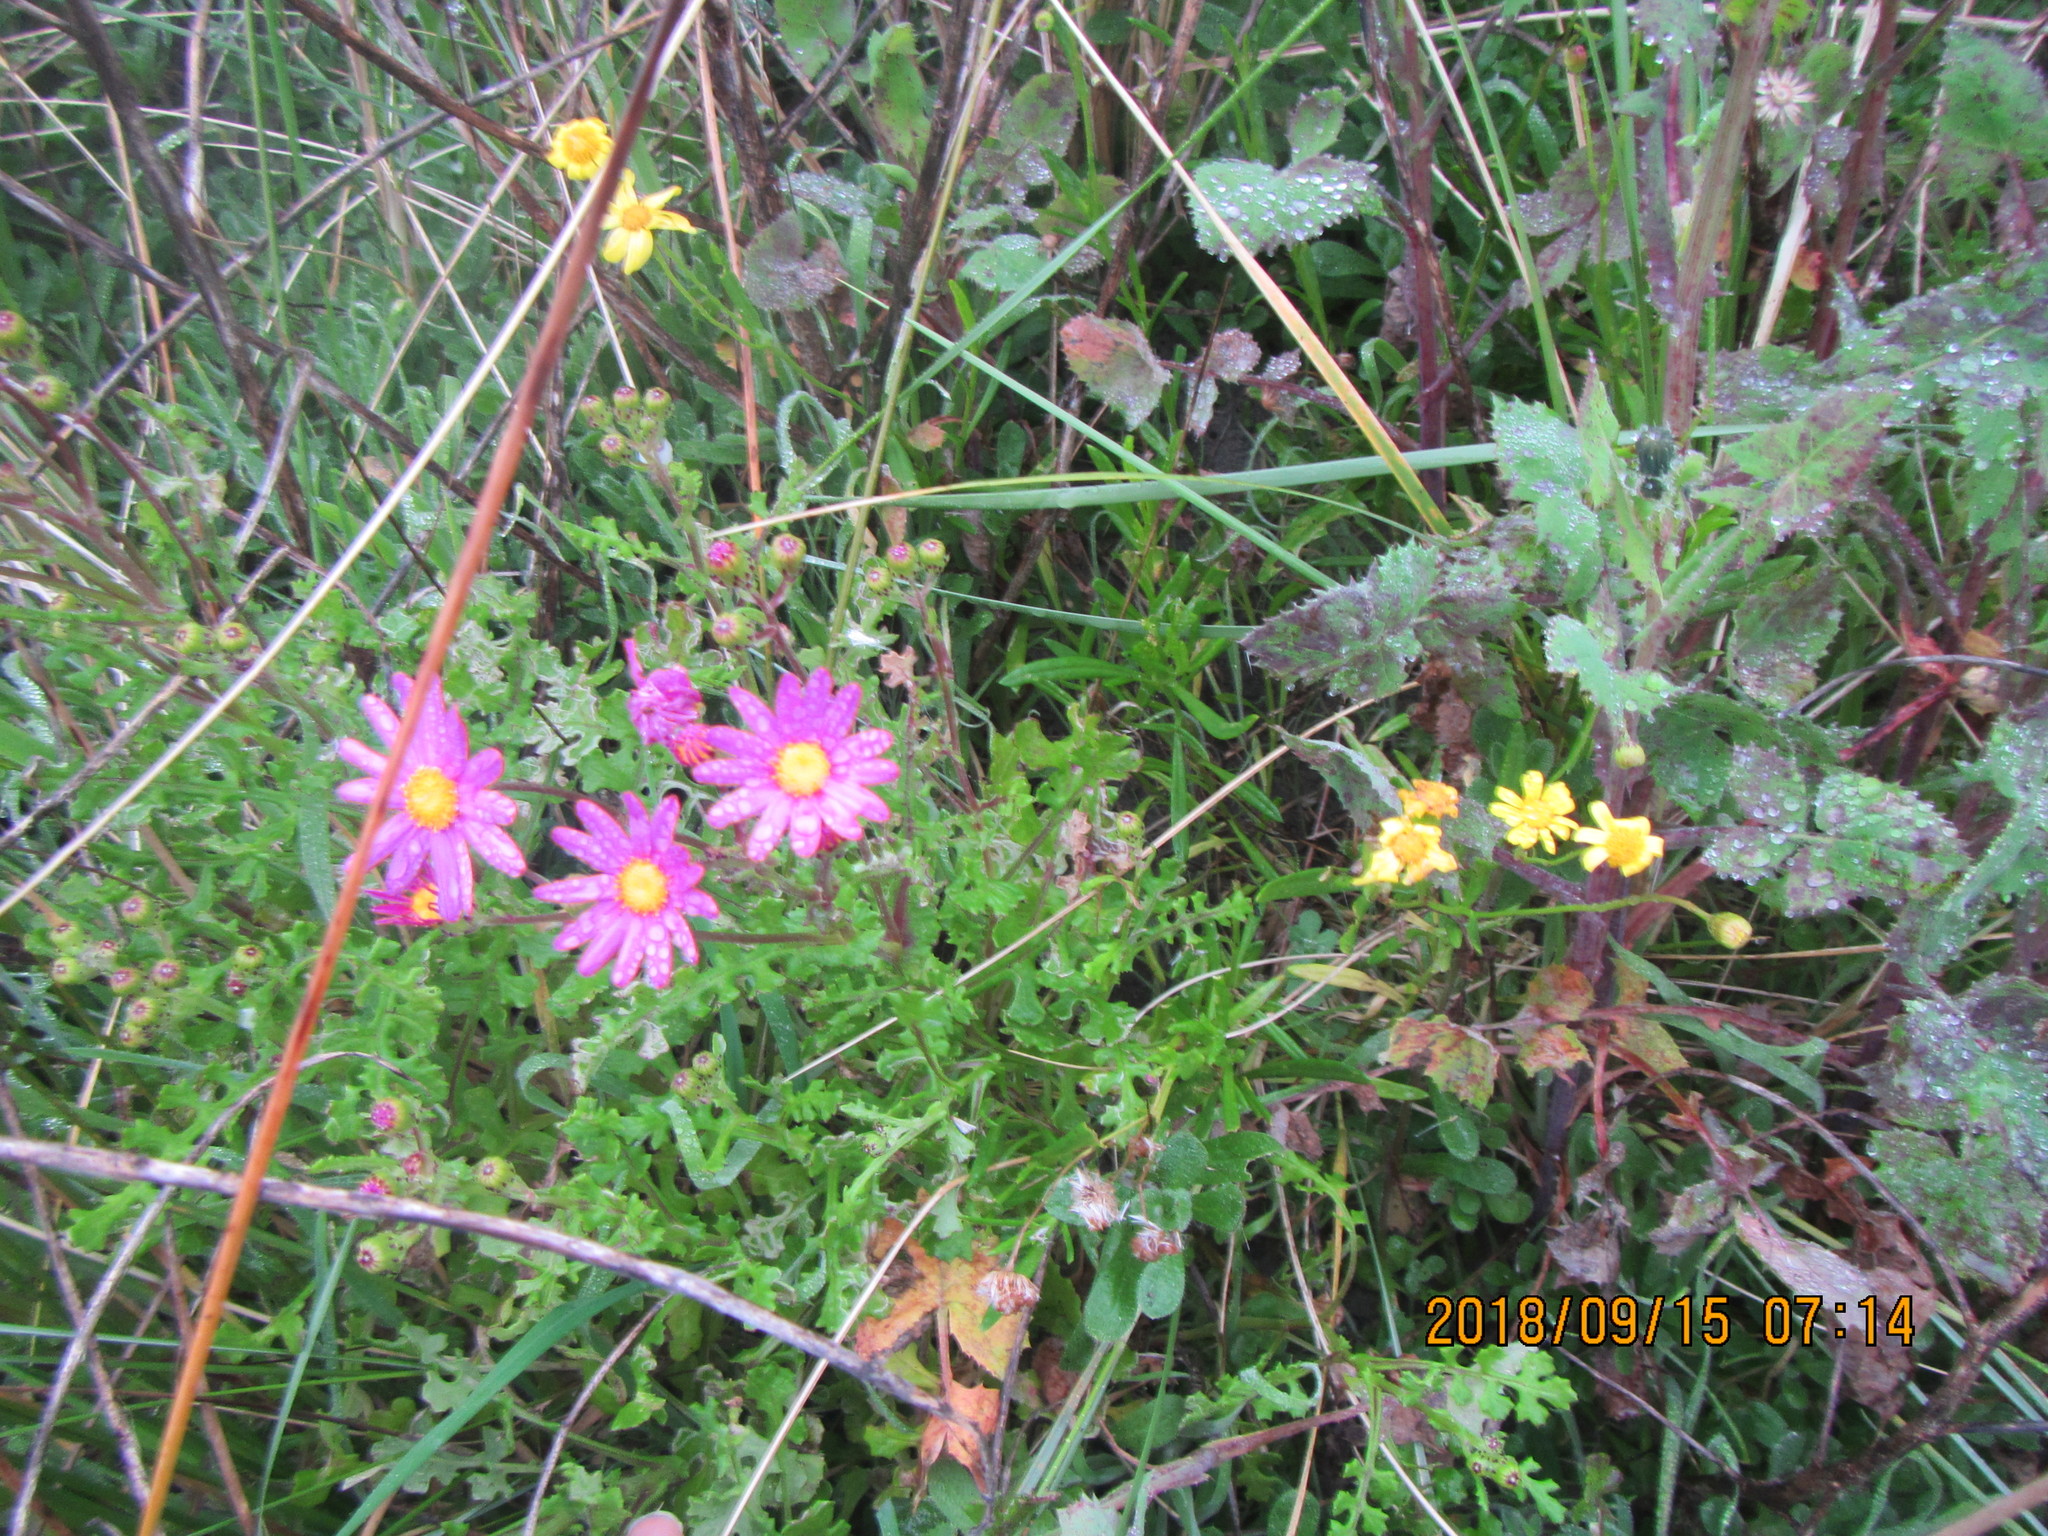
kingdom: Plantae
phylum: Tracheophyta
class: Magnoliopsida
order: Asterales
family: Asteraceae
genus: Senecio
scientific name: Senecio elegans
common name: Purple groundsel
